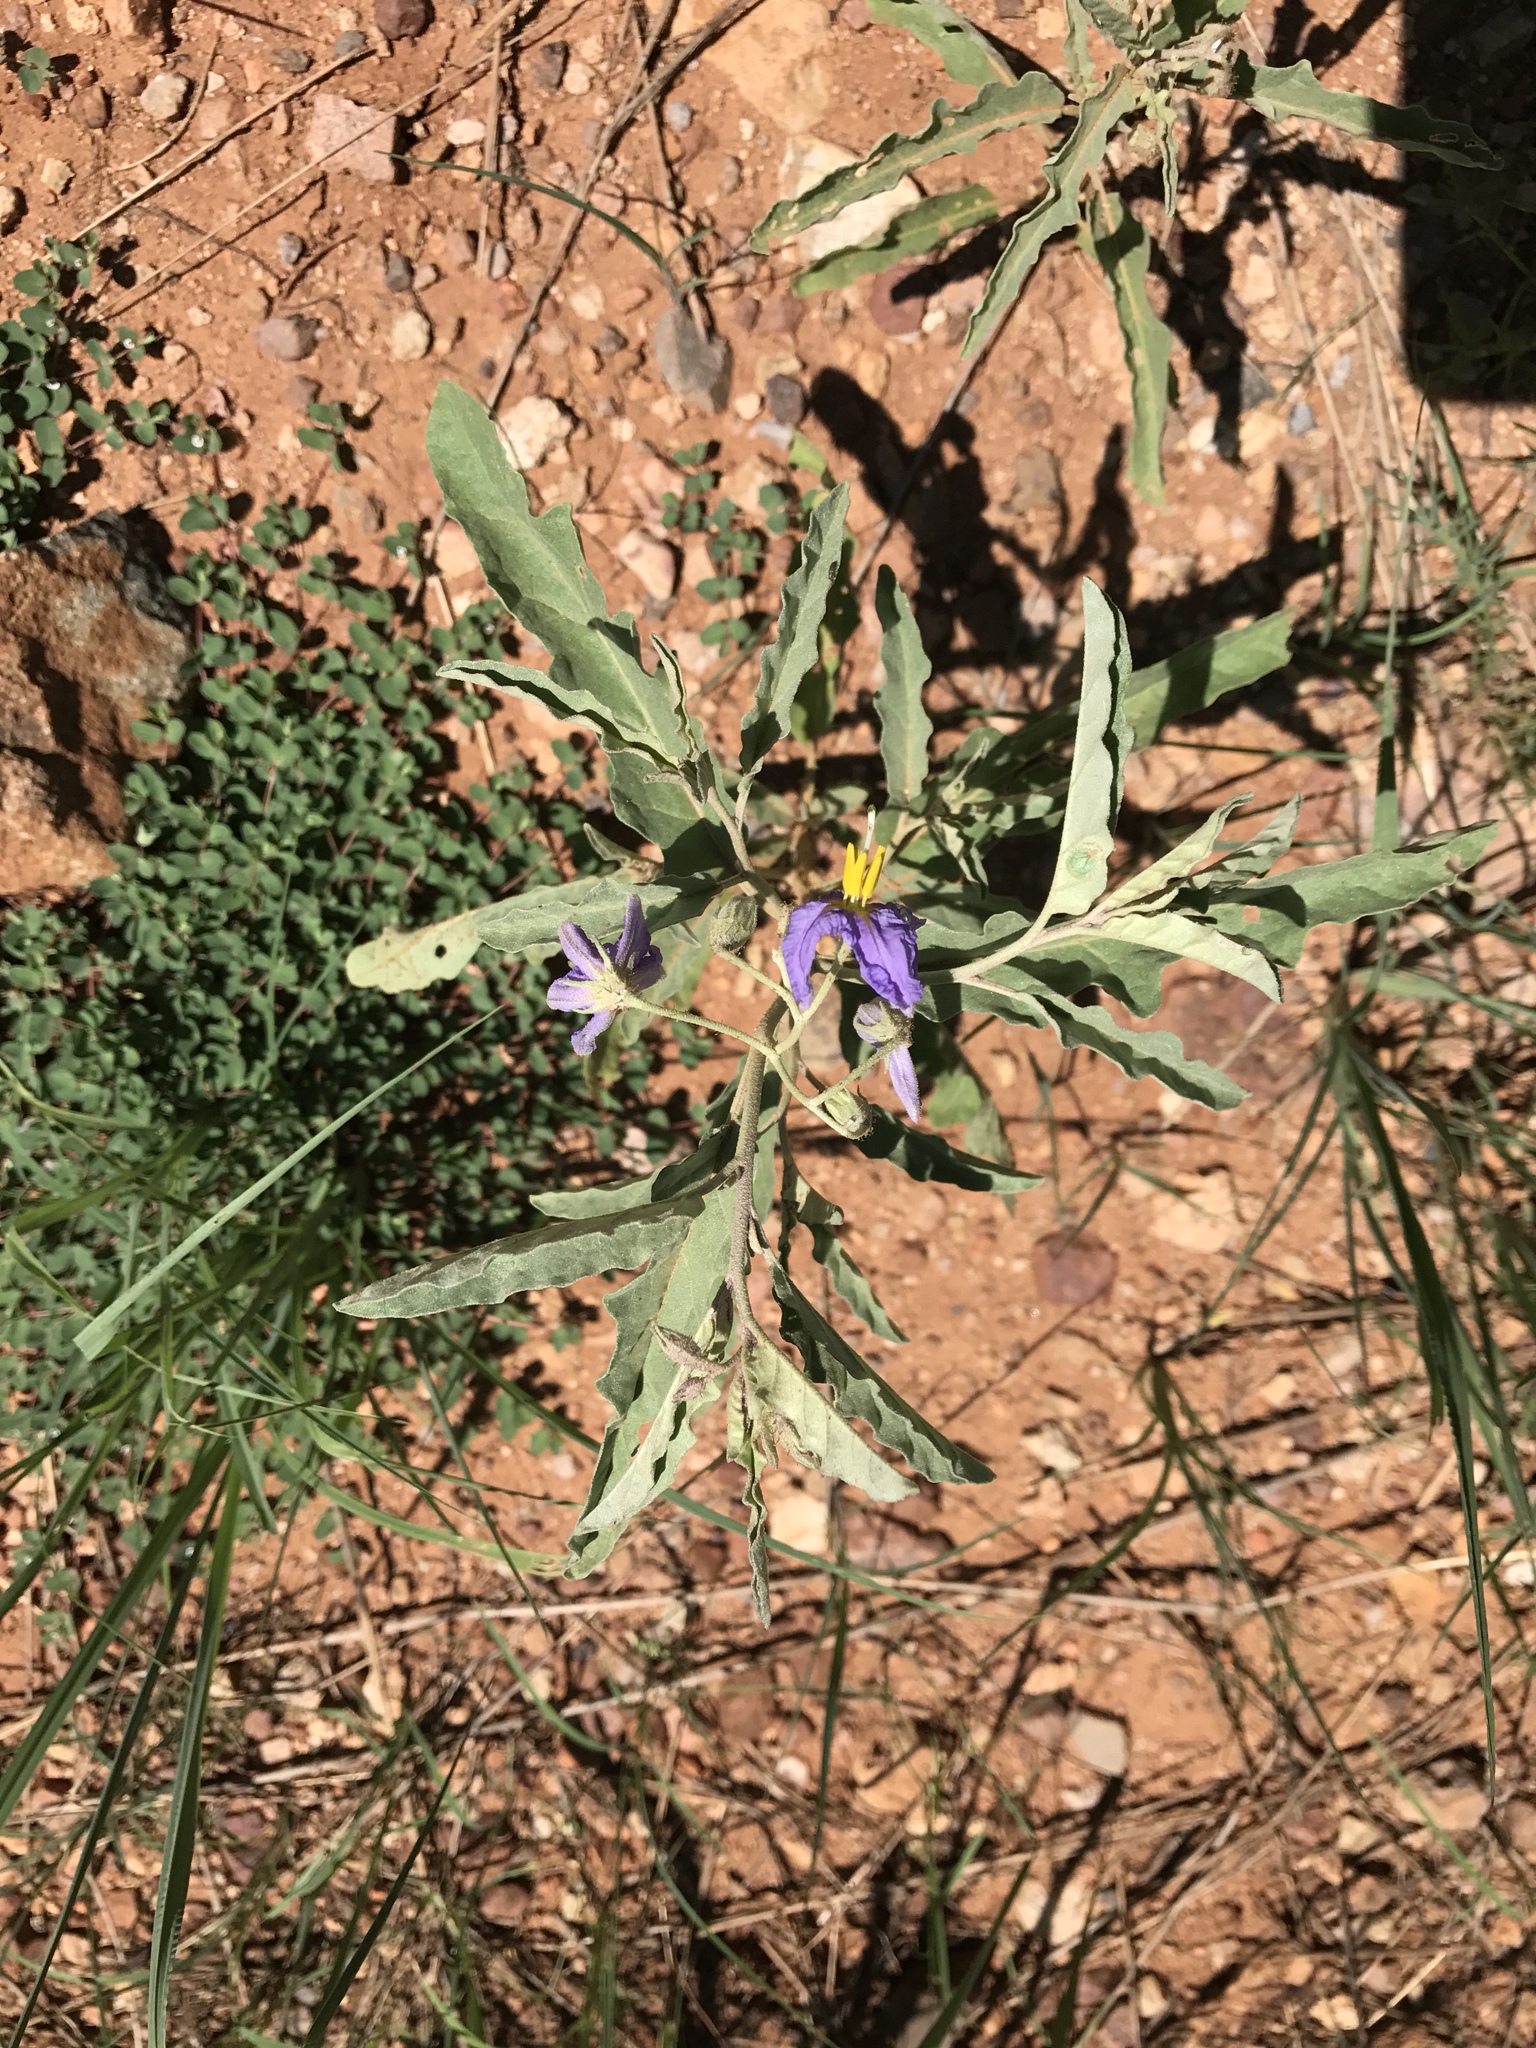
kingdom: Plantae
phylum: Tracheophyta
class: Magnoliopsida
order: Solanales
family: Solanaceae
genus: Solanum
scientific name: Solanum elaeagnifolium
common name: Silverleaf nightshade
